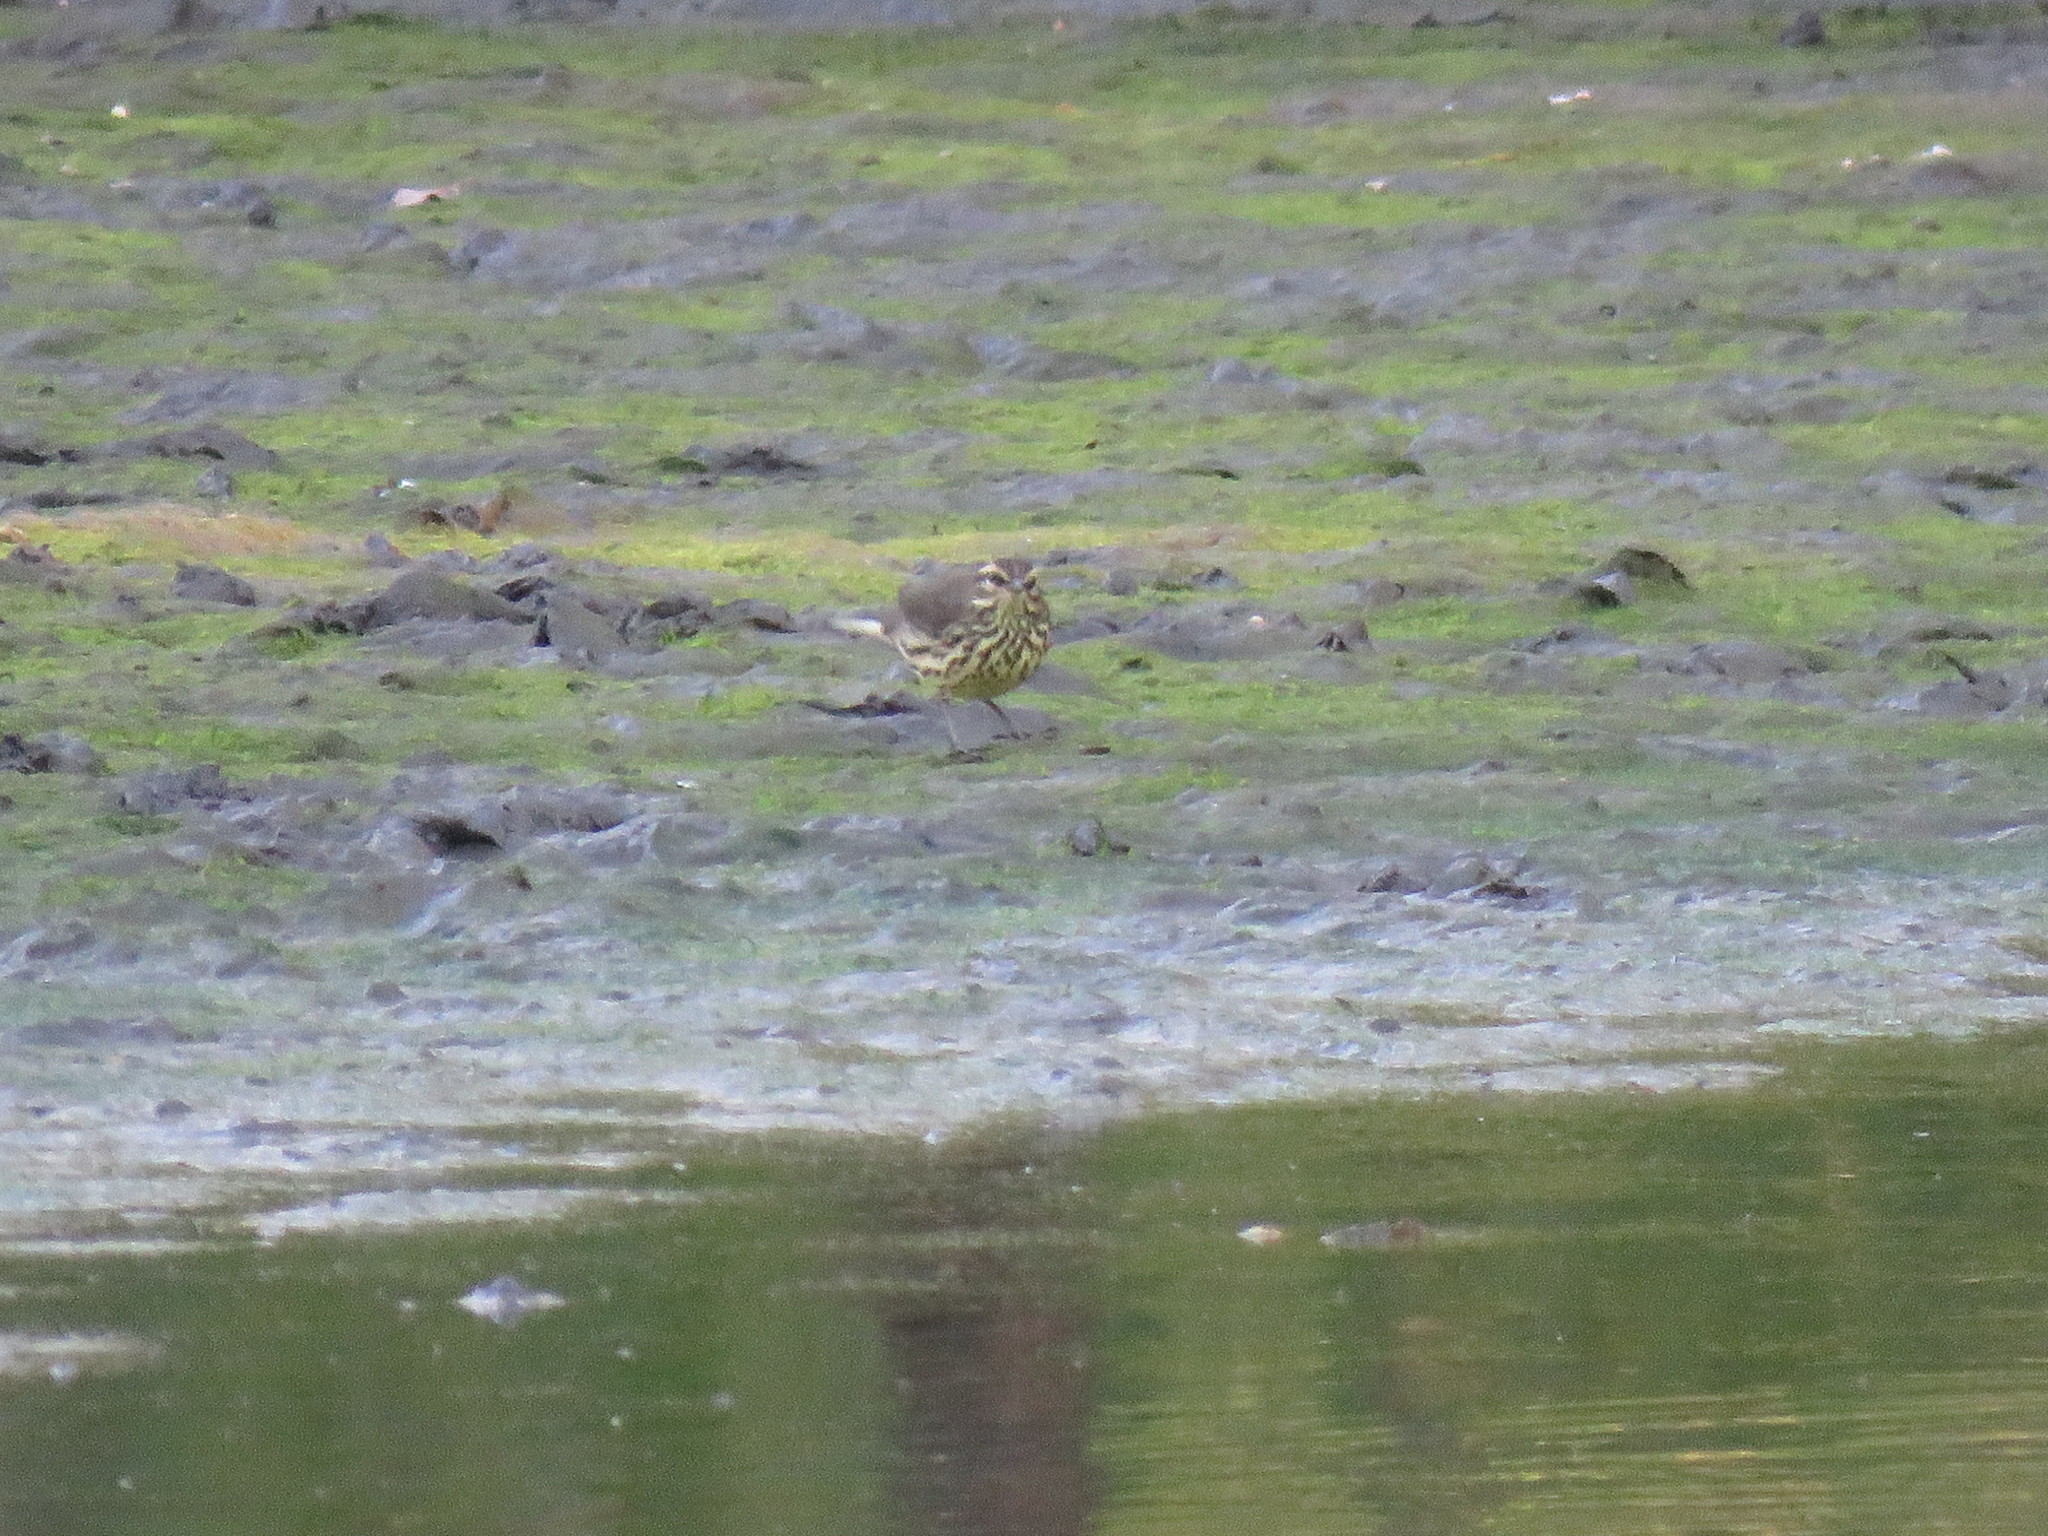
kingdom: Animalia
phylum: Chordata
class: Aves
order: Passeriformes
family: Parulidae
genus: Parkesia
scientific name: Parkesia noveboracensis
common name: Northern waterthrush
